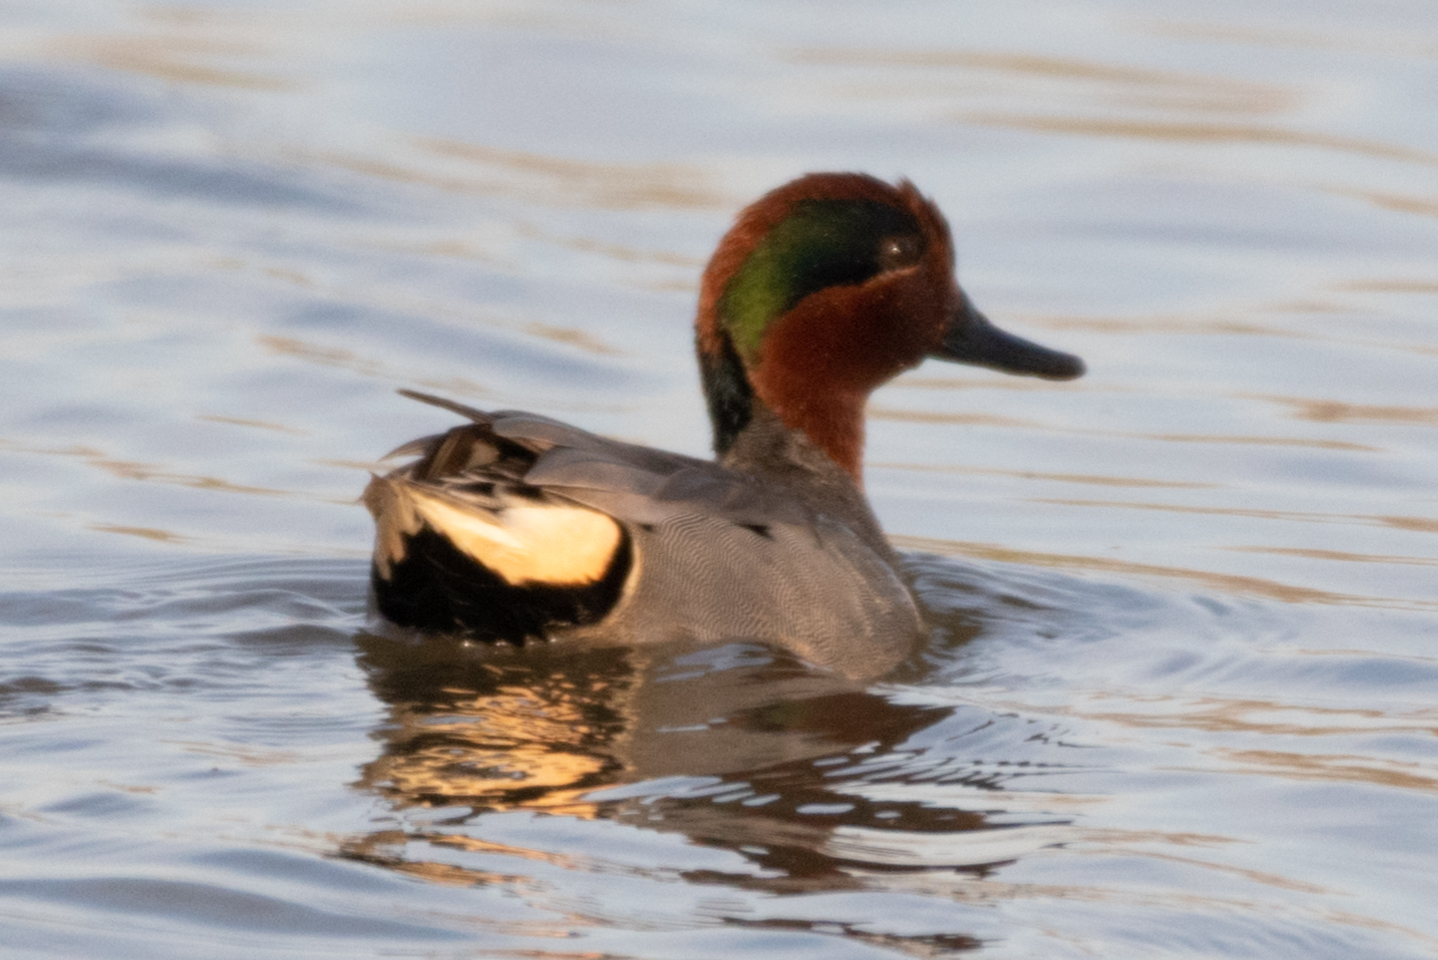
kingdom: Animalia
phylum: Chordata
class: Aves
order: Anseriformes
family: Anatidae
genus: Anas
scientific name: Anas crecca
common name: Eurasian teal
